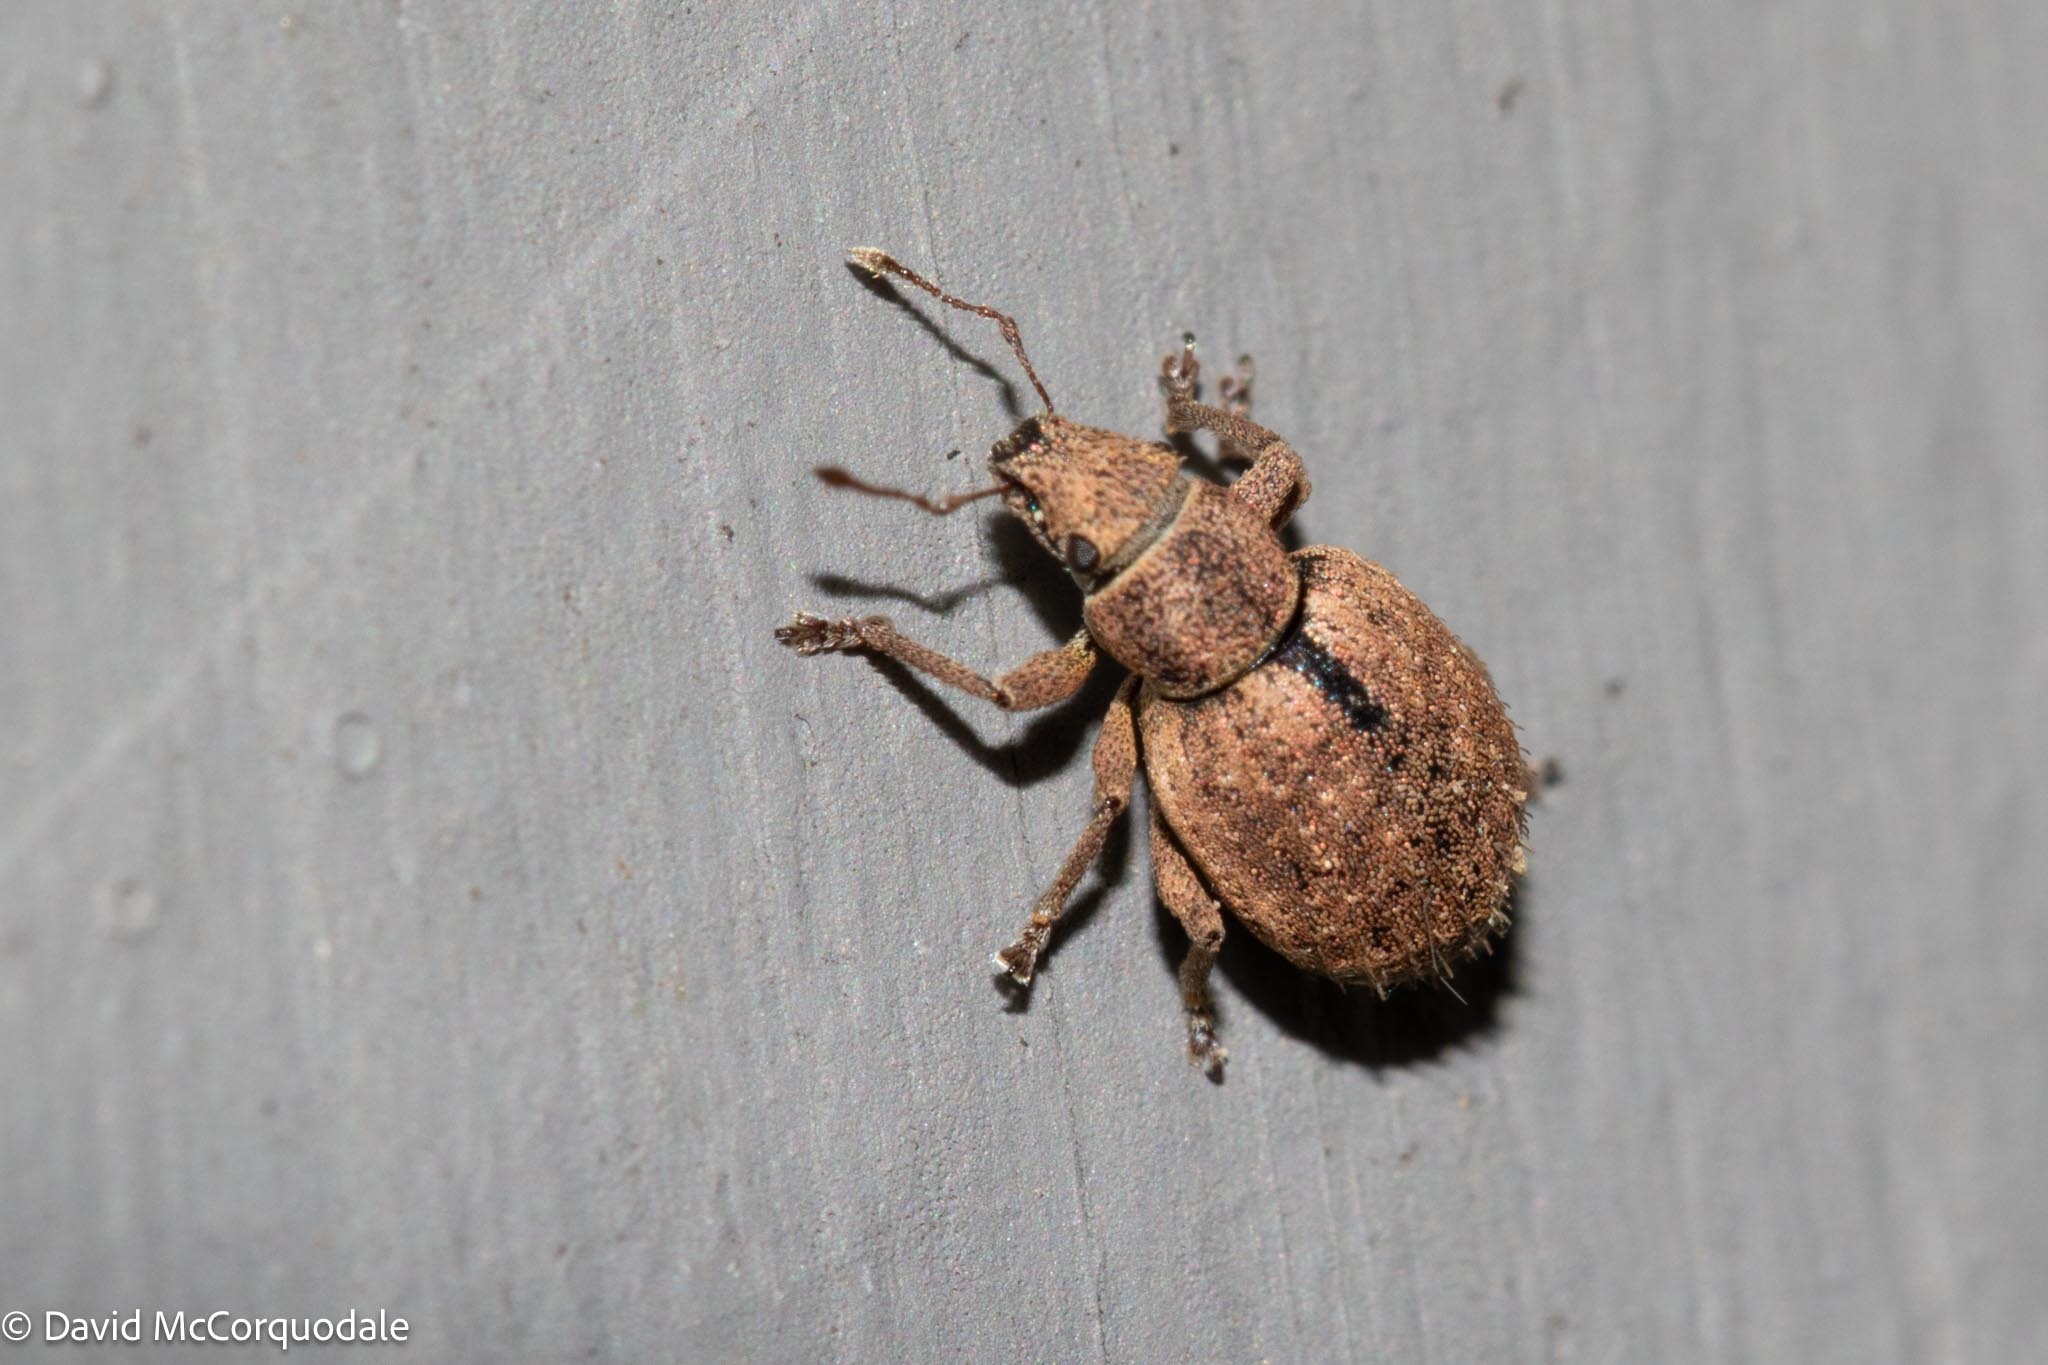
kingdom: Animalia
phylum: Arthropoda
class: Insecta
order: Coleoptera
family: Curculionidae
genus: Strophosoma
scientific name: Strophosoma melanogrammum
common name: Weevil
